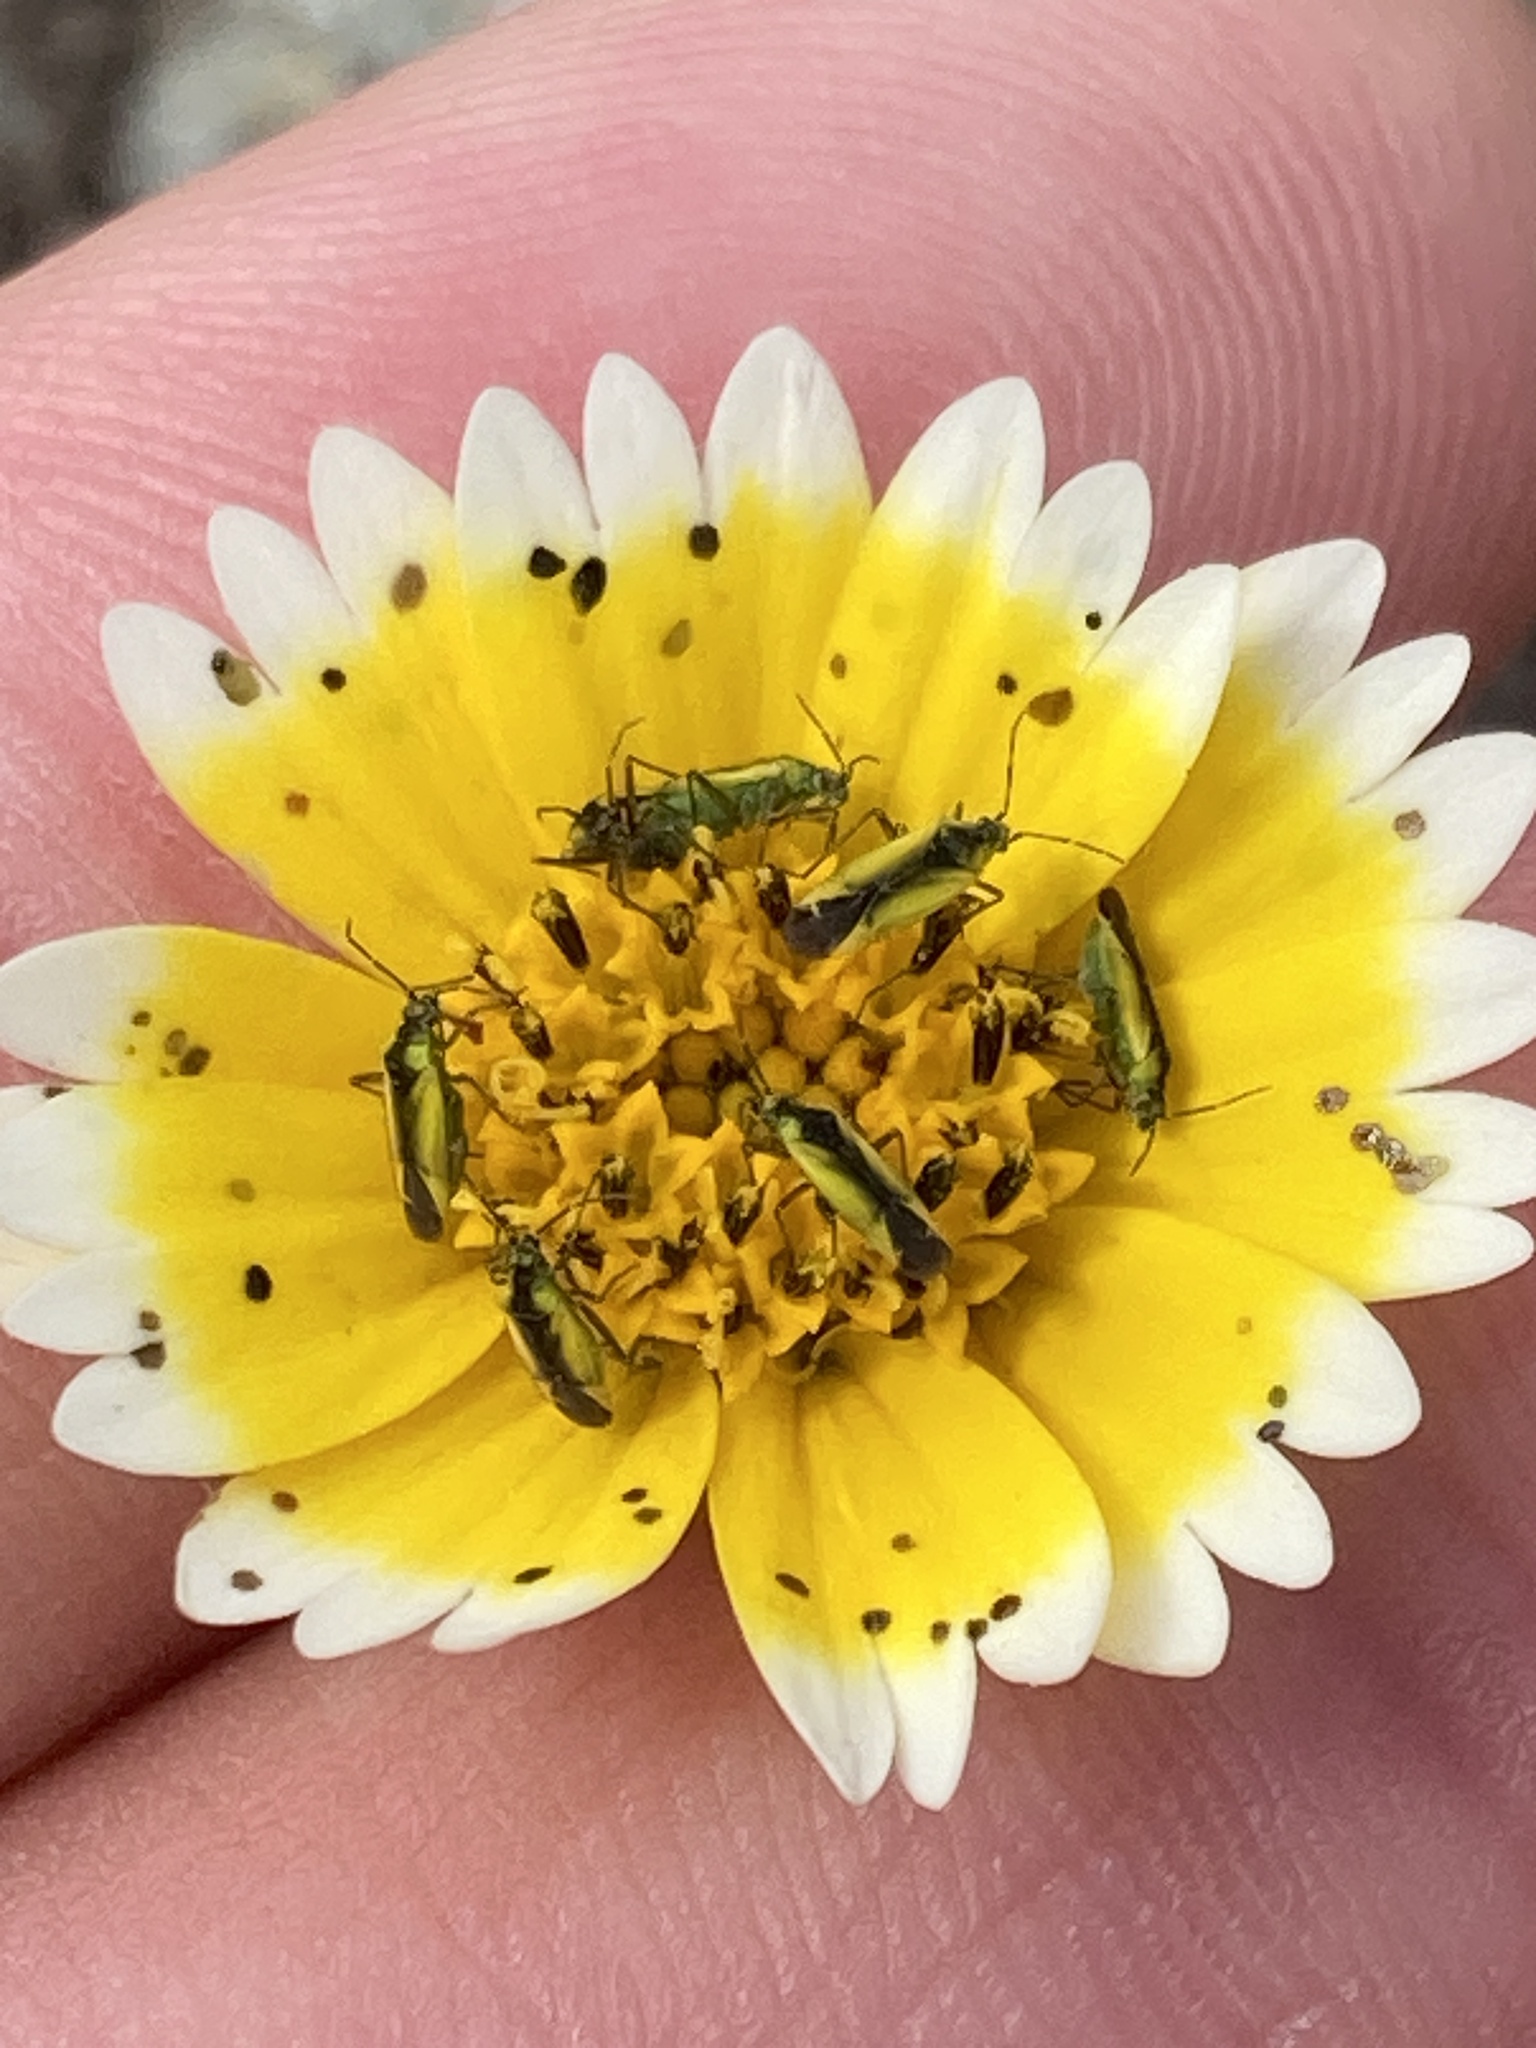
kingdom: Plantae
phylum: Tracheophyta
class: Magnoliopsida
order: Asterales
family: Asteraceae
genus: Layia
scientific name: Layia platyglossa
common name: Tidy-tips
